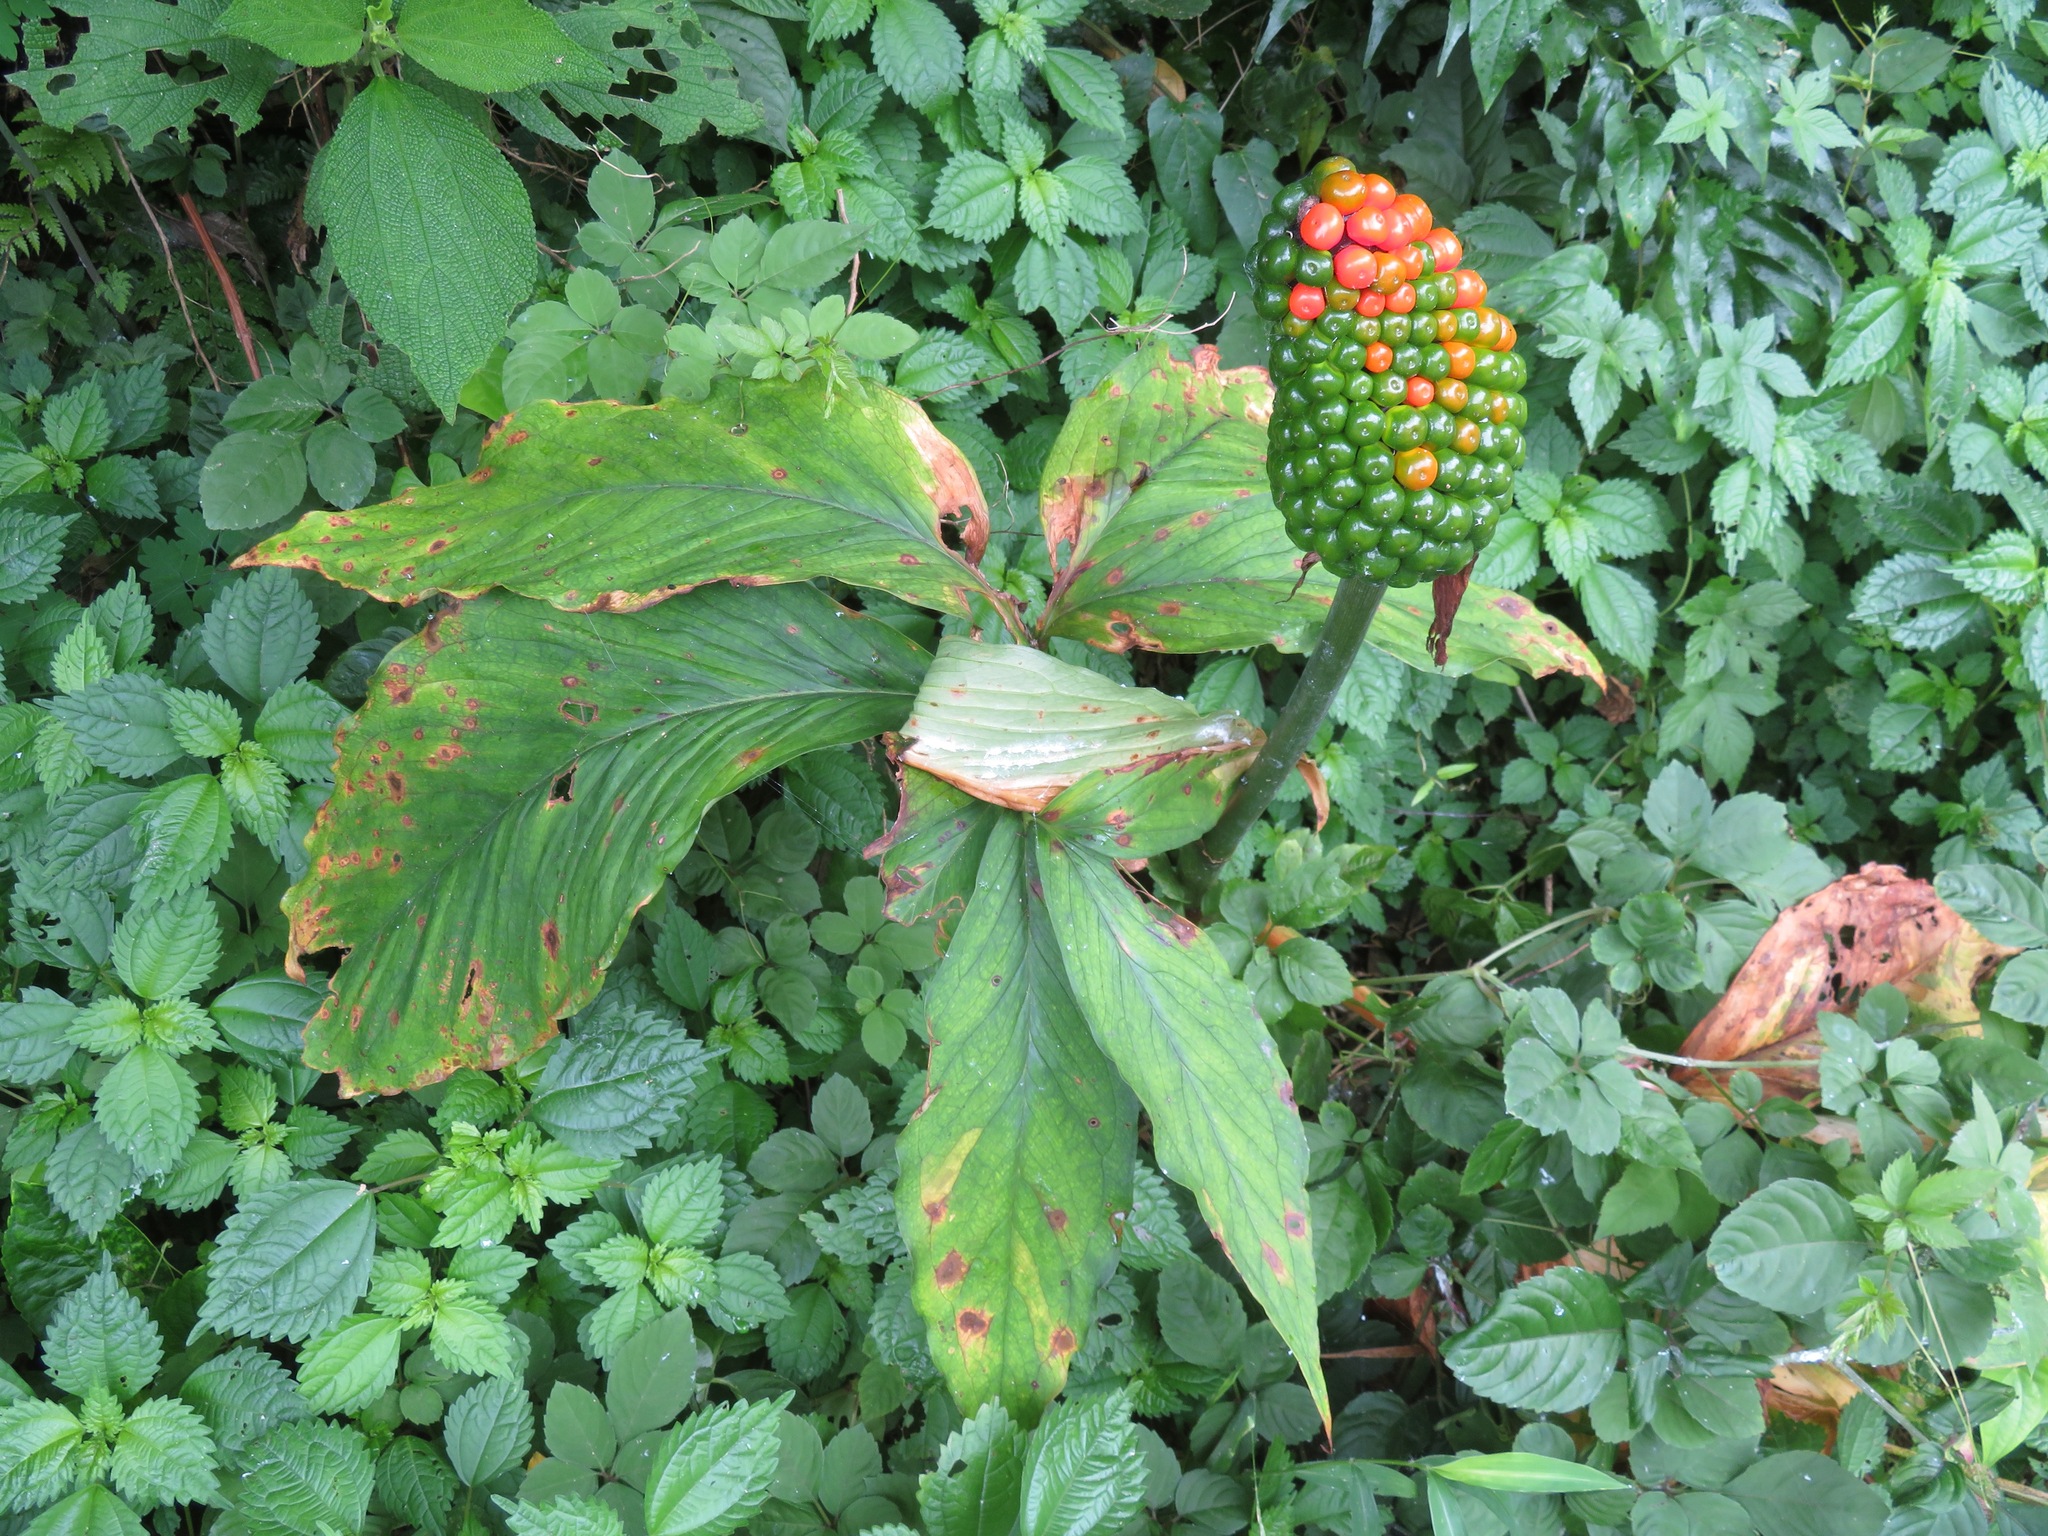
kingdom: Plantae
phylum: Tracheophyta
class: Liliopsida
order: Alismatales
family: Araceae
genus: Arisaema
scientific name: Arisaema aequinoctiale
